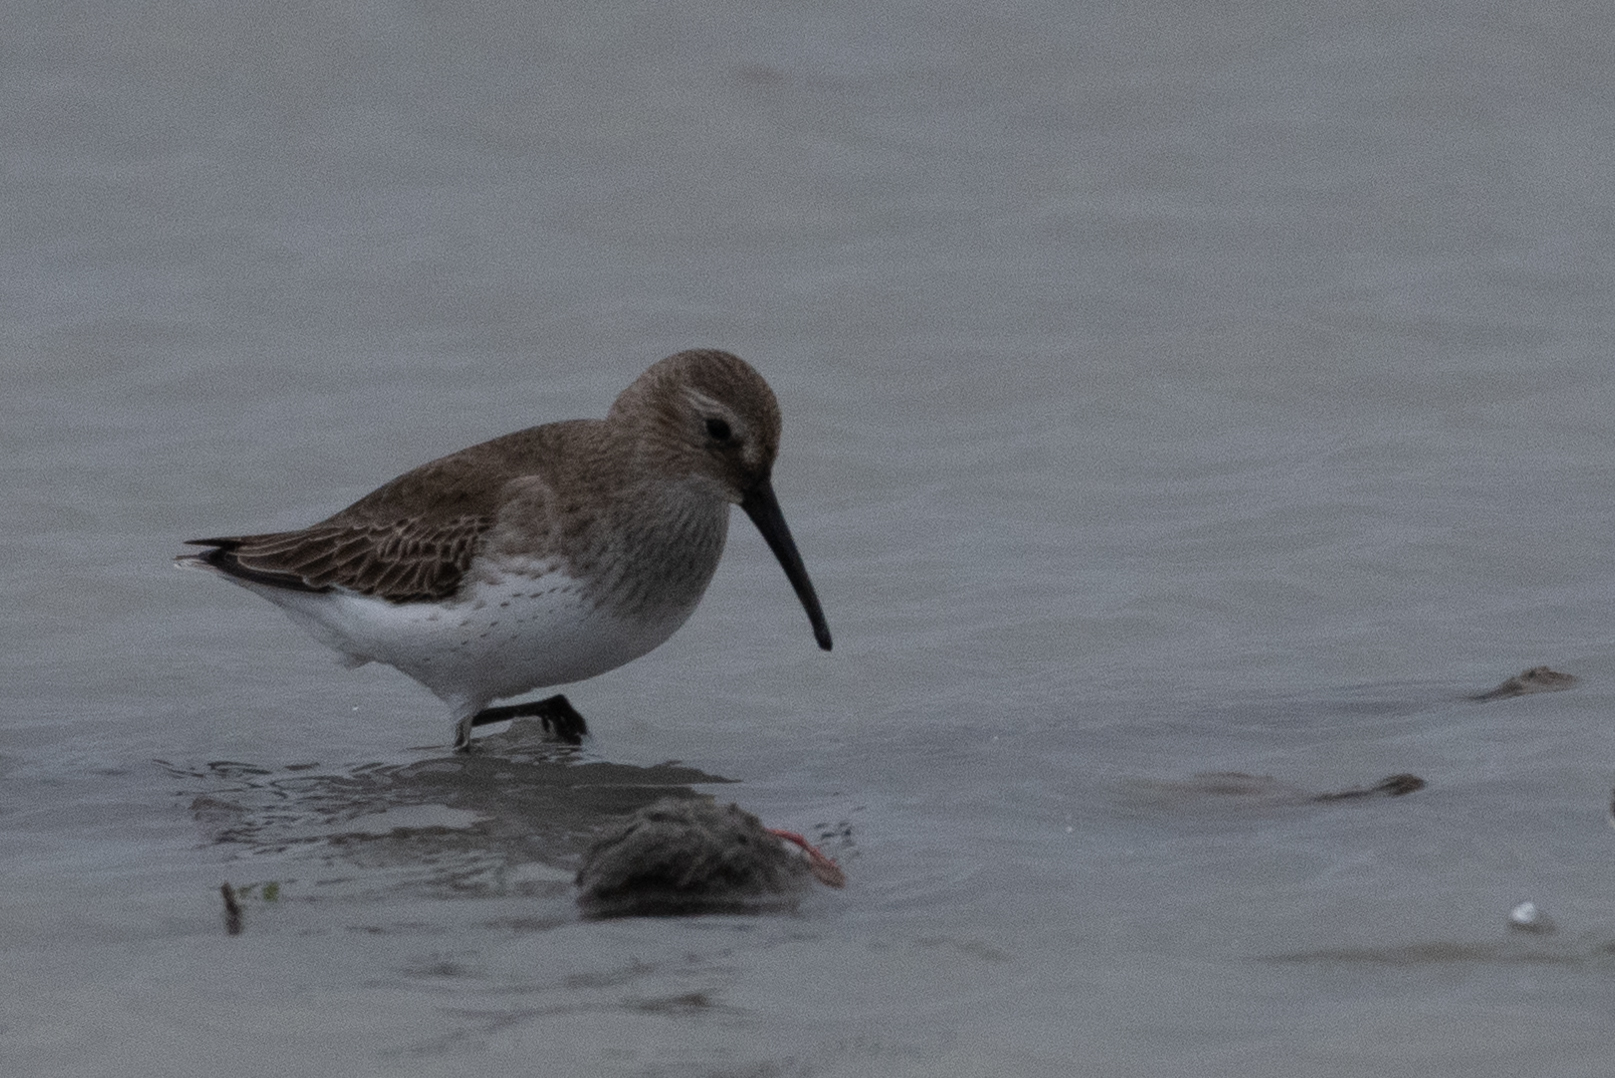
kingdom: Animalia
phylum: Chordata
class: Aves
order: Charadriiformes
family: Scolopacidae
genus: Calidris
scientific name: Calidris alpina
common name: Dunlin
